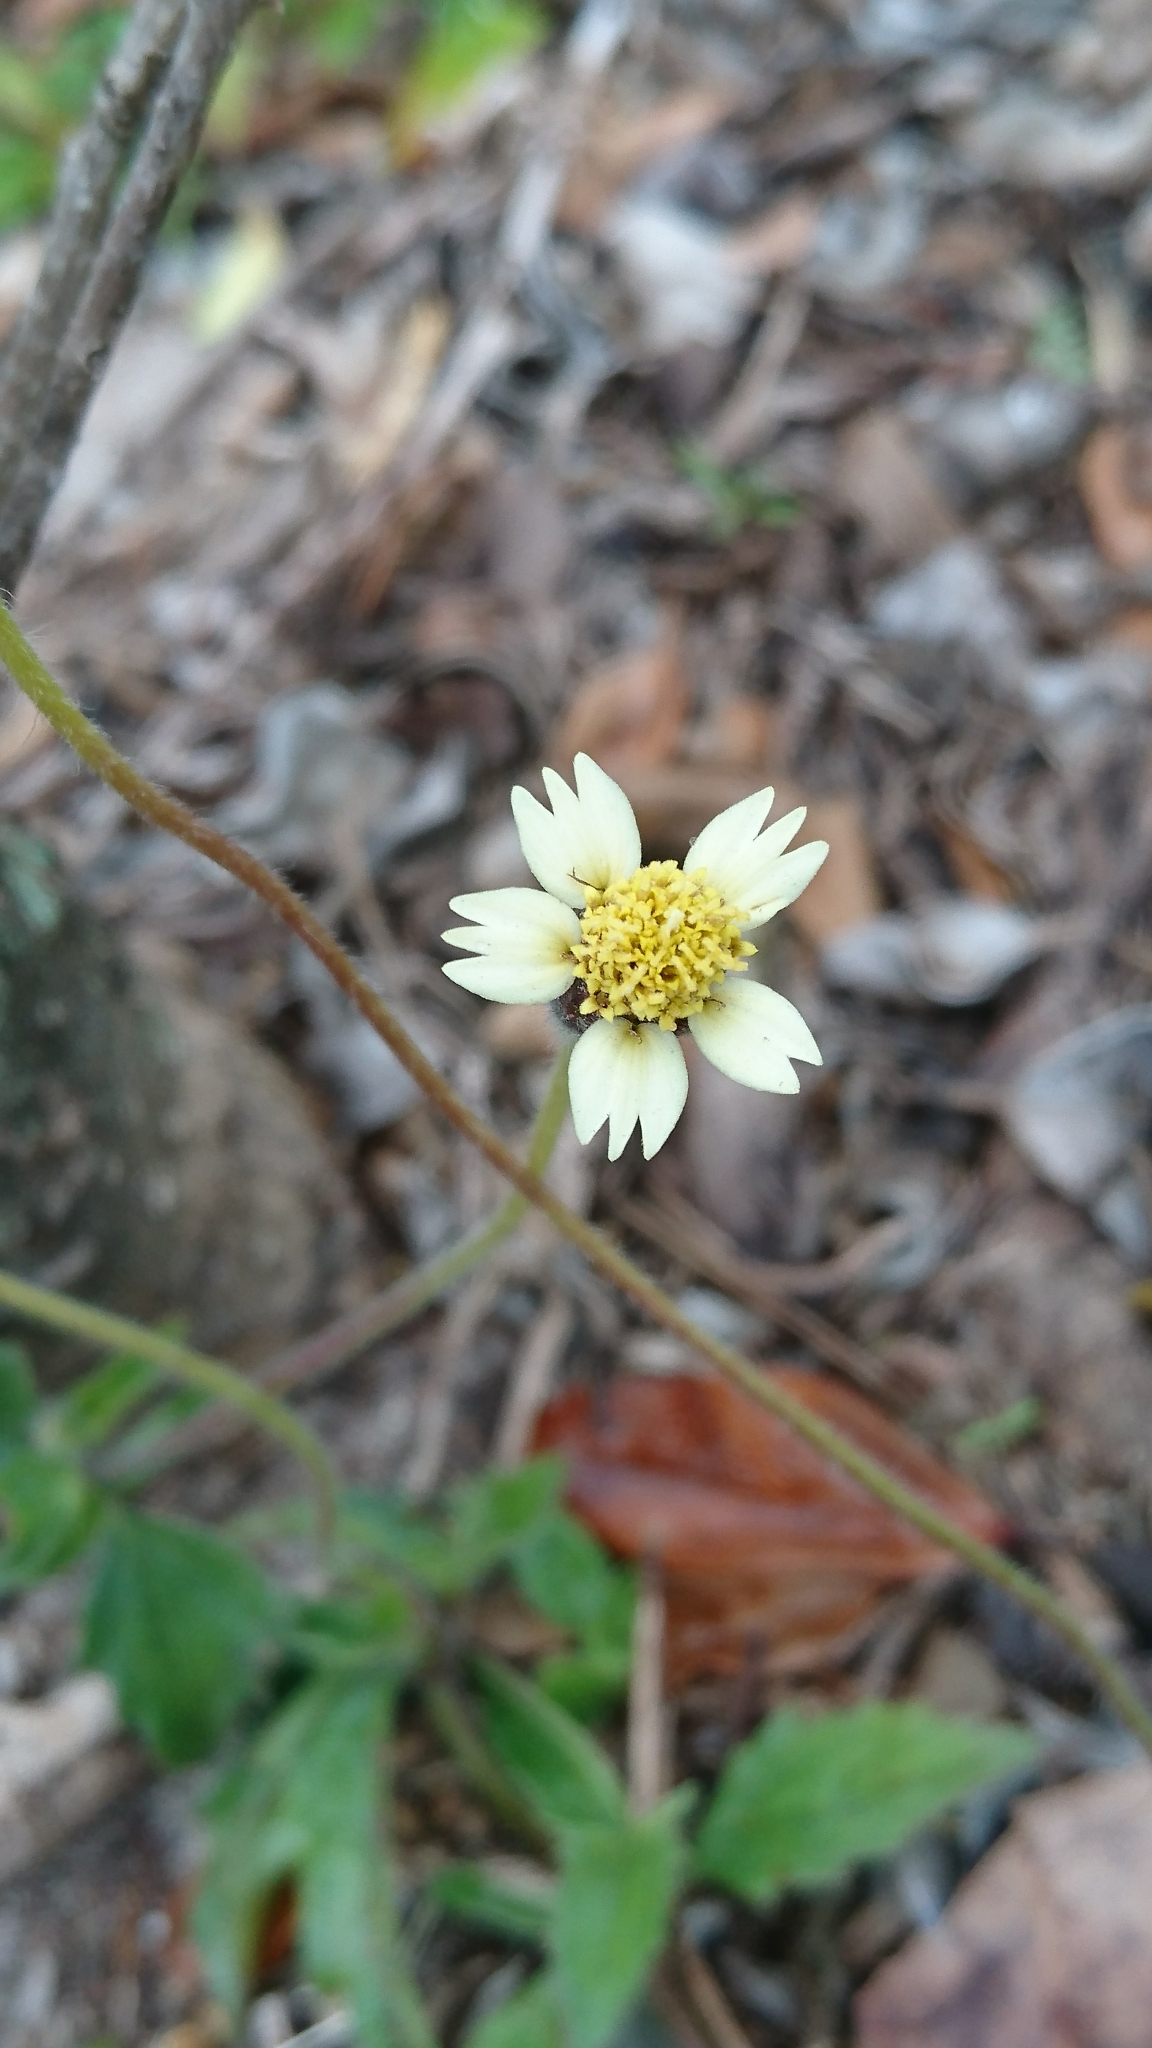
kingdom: Plantae
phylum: Tracheophyta
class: Magnoliopsida
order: Asterales
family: Asteraceae
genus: Tridax
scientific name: Tridax procumbens
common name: Coatbuttons
